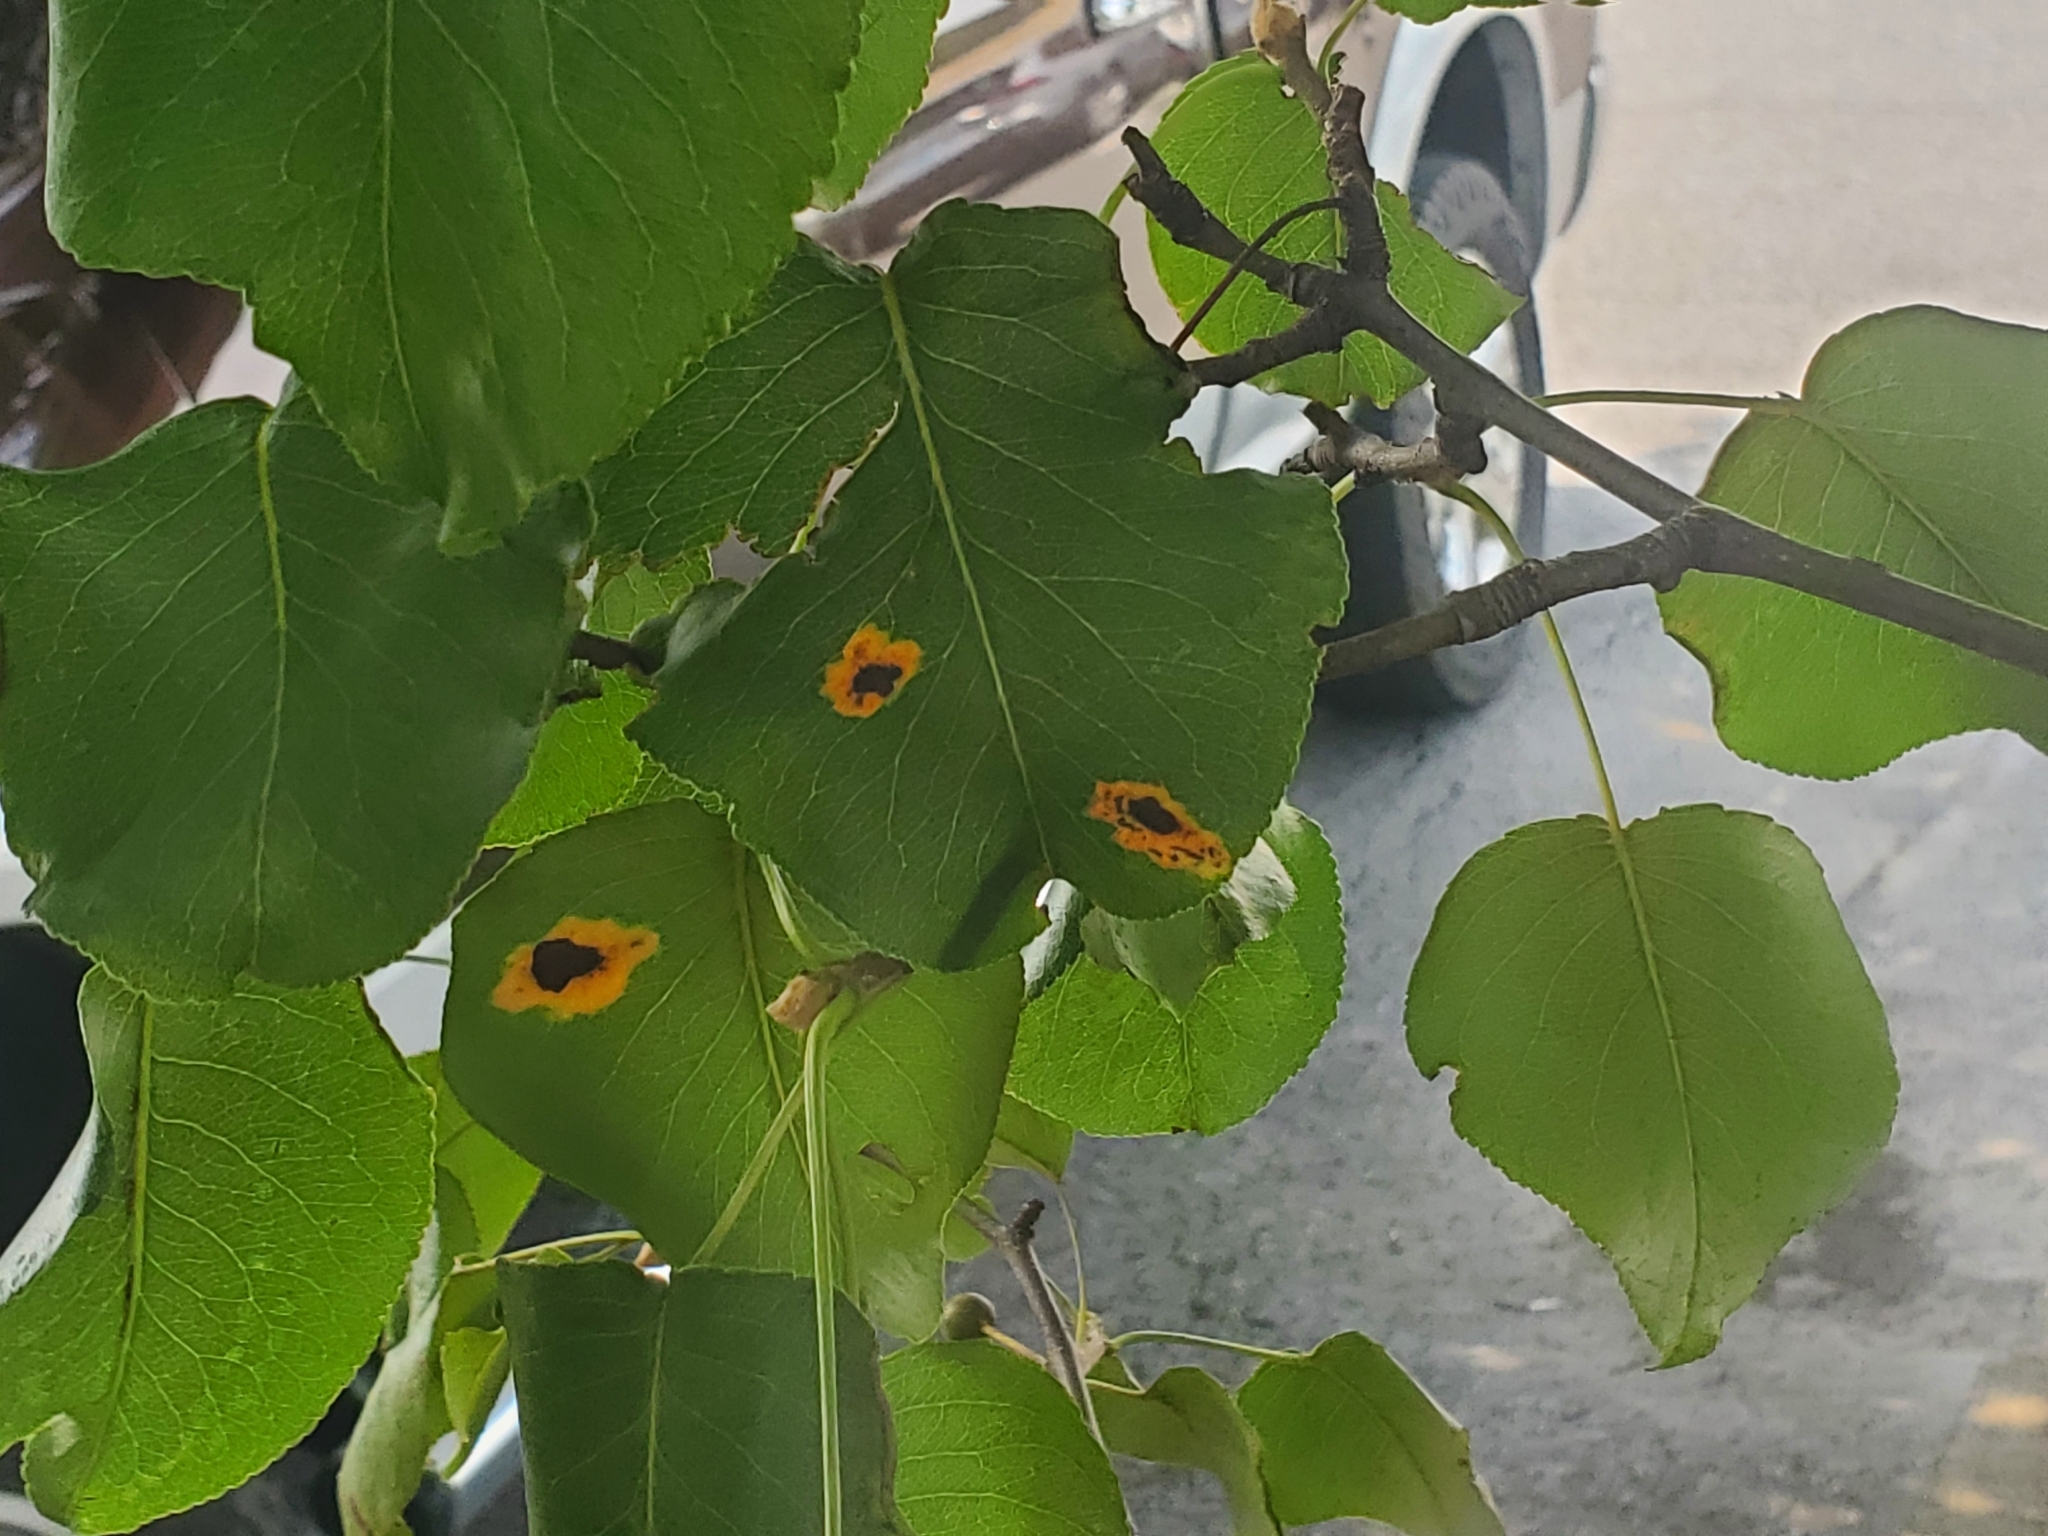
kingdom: Fungi
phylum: Basidiomycota
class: Pucciniomycetes
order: Pucciniales
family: Gymnosporangiaceae
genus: Gymnosporangium
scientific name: Gymnosporangium sabinae
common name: Pear trellis rust fungus
